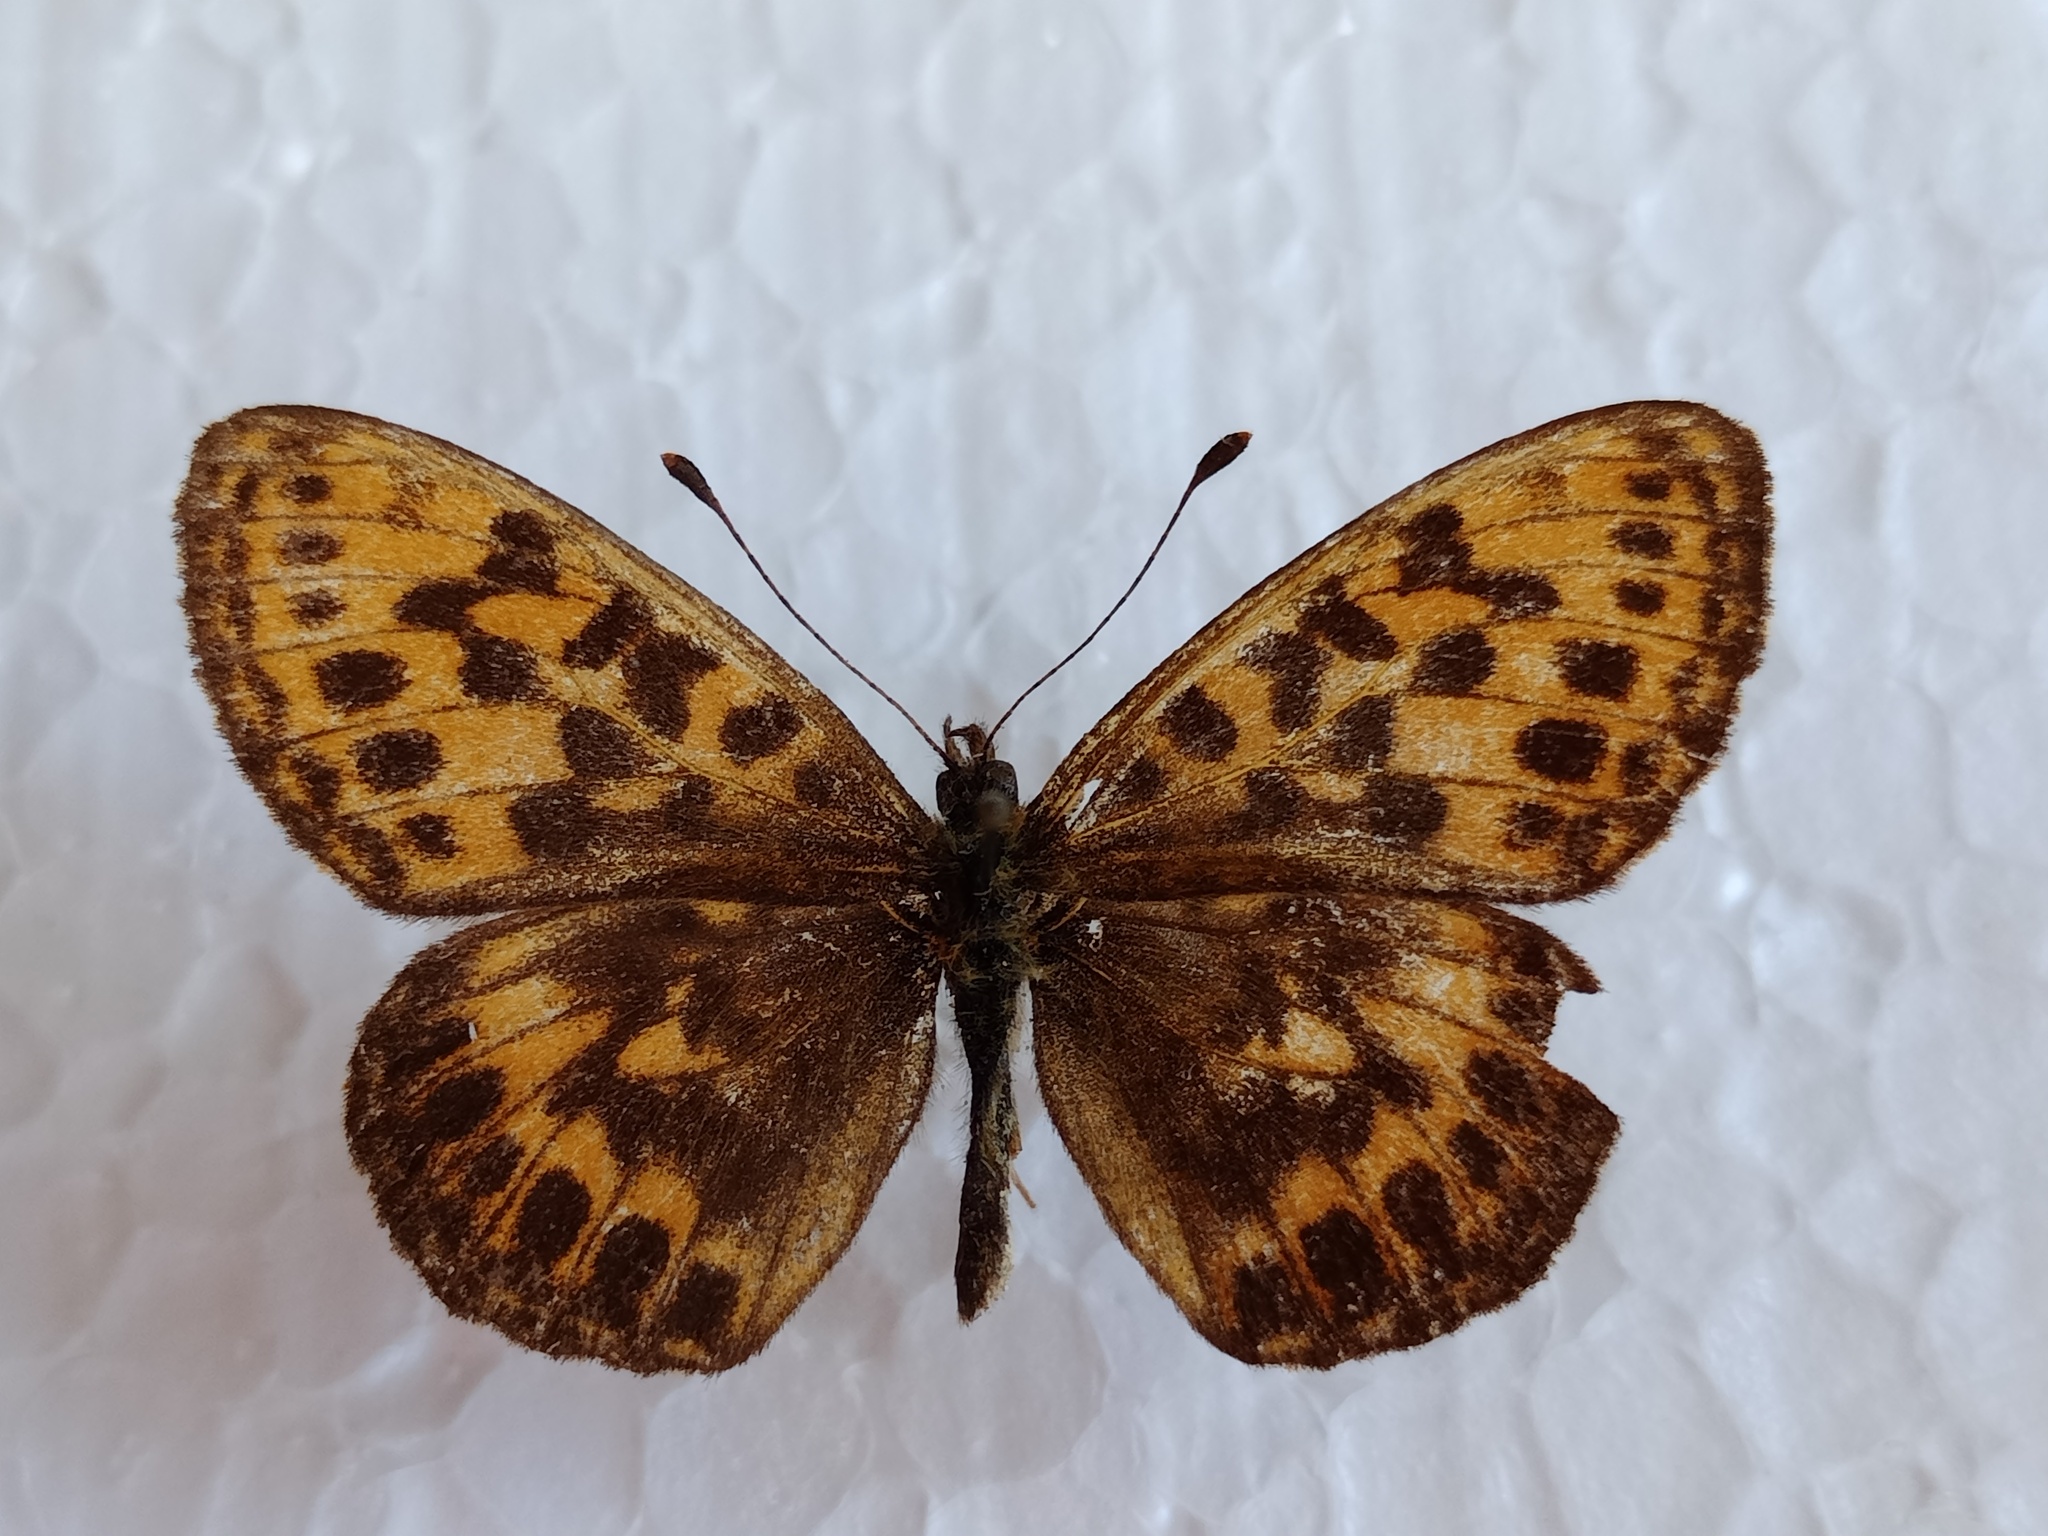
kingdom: Animalia
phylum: Arthropoda
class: Insecta
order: Lepidoptera
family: Nymphalidae
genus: Boloria
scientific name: Boloria thore
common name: Thor's fritillary
